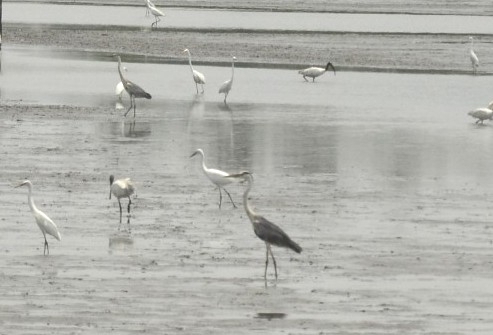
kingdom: Animalia
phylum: Chordata
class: Aves
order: Pelecaniformes
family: Ardeidae
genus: Ardea
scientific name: Ardea cinerea
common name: Grey heron
